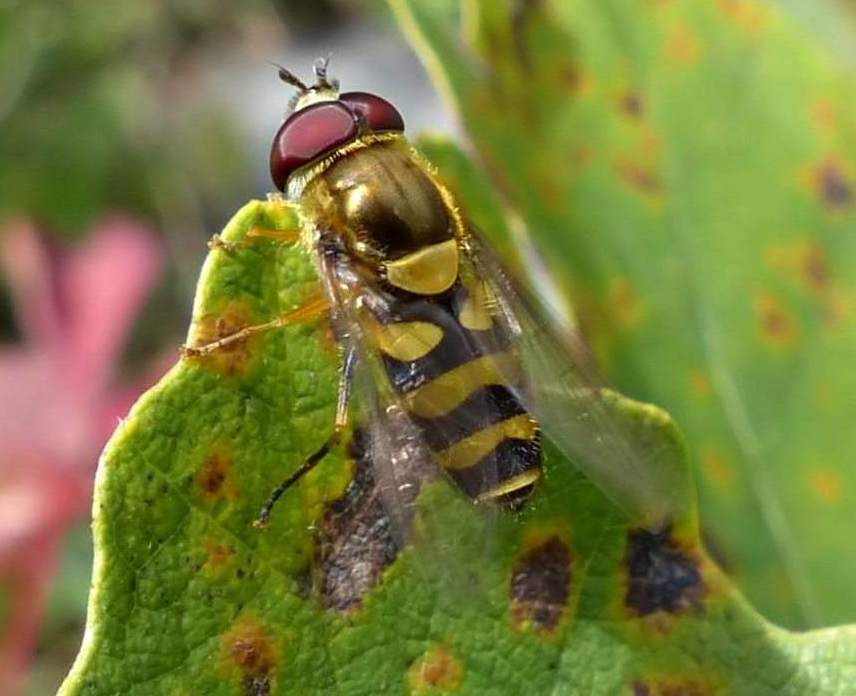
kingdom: Animalia
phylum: Arthropoda
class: Insecta
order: Diptera
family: Syrphidae
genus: Syrphus
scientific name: Syrphus
